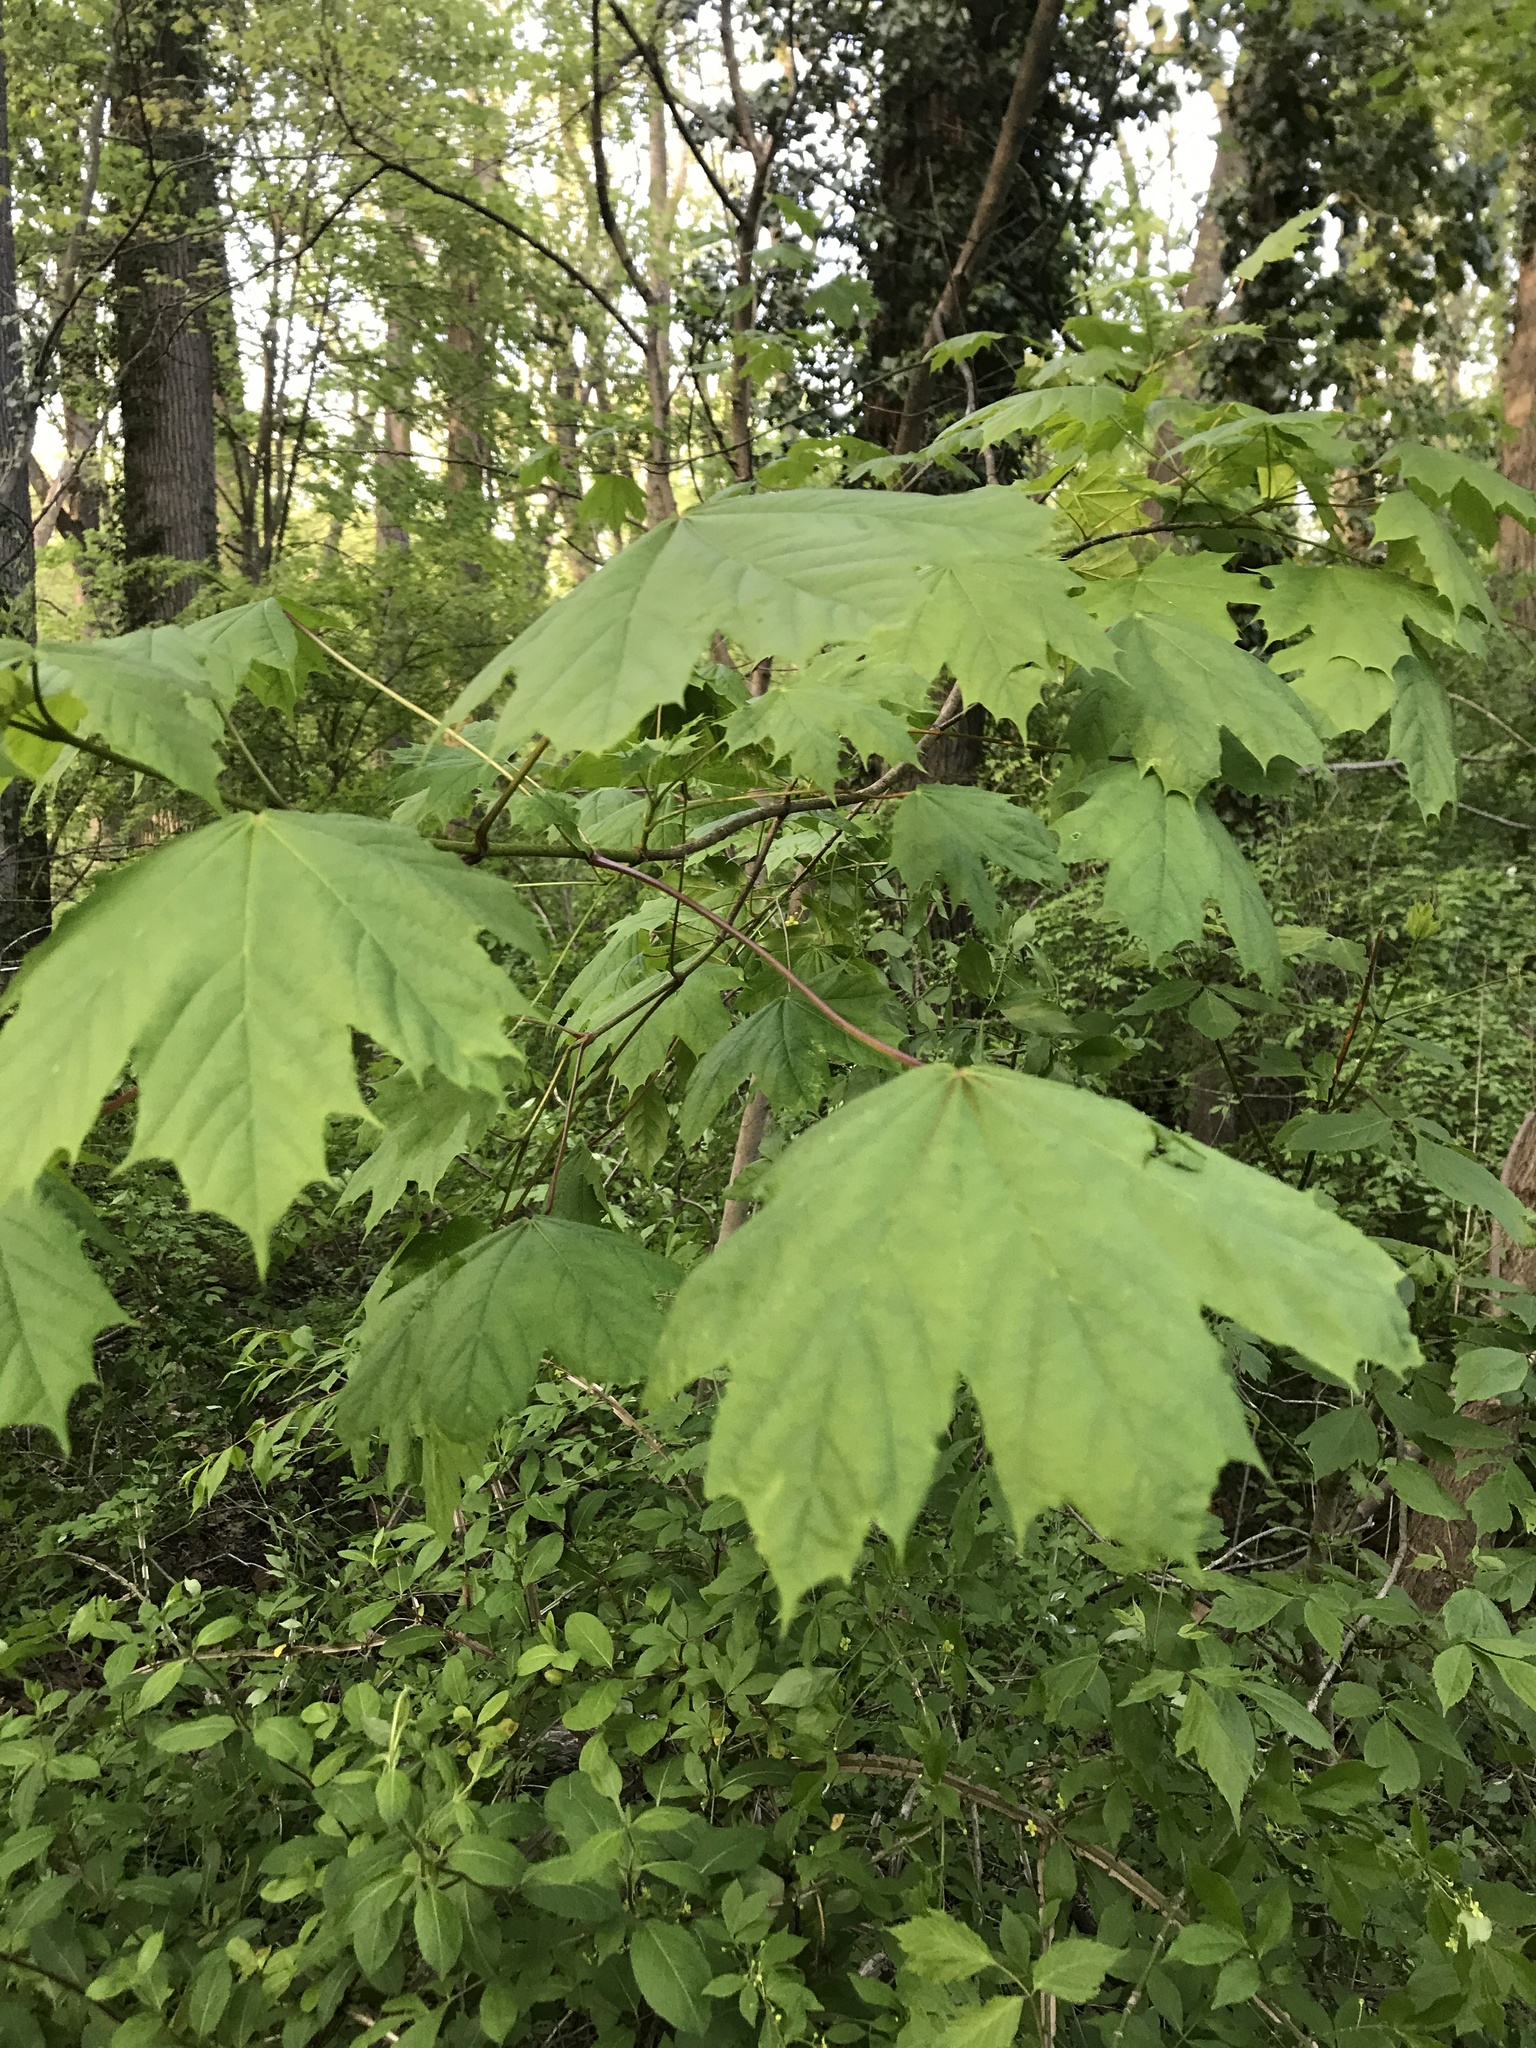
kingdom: Plantae
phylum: Tracheophyta
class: Magnoliopsida
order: Sapindales
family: Sapindaceae
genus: Acer
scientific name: Acer platanoides
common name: Norway maple
